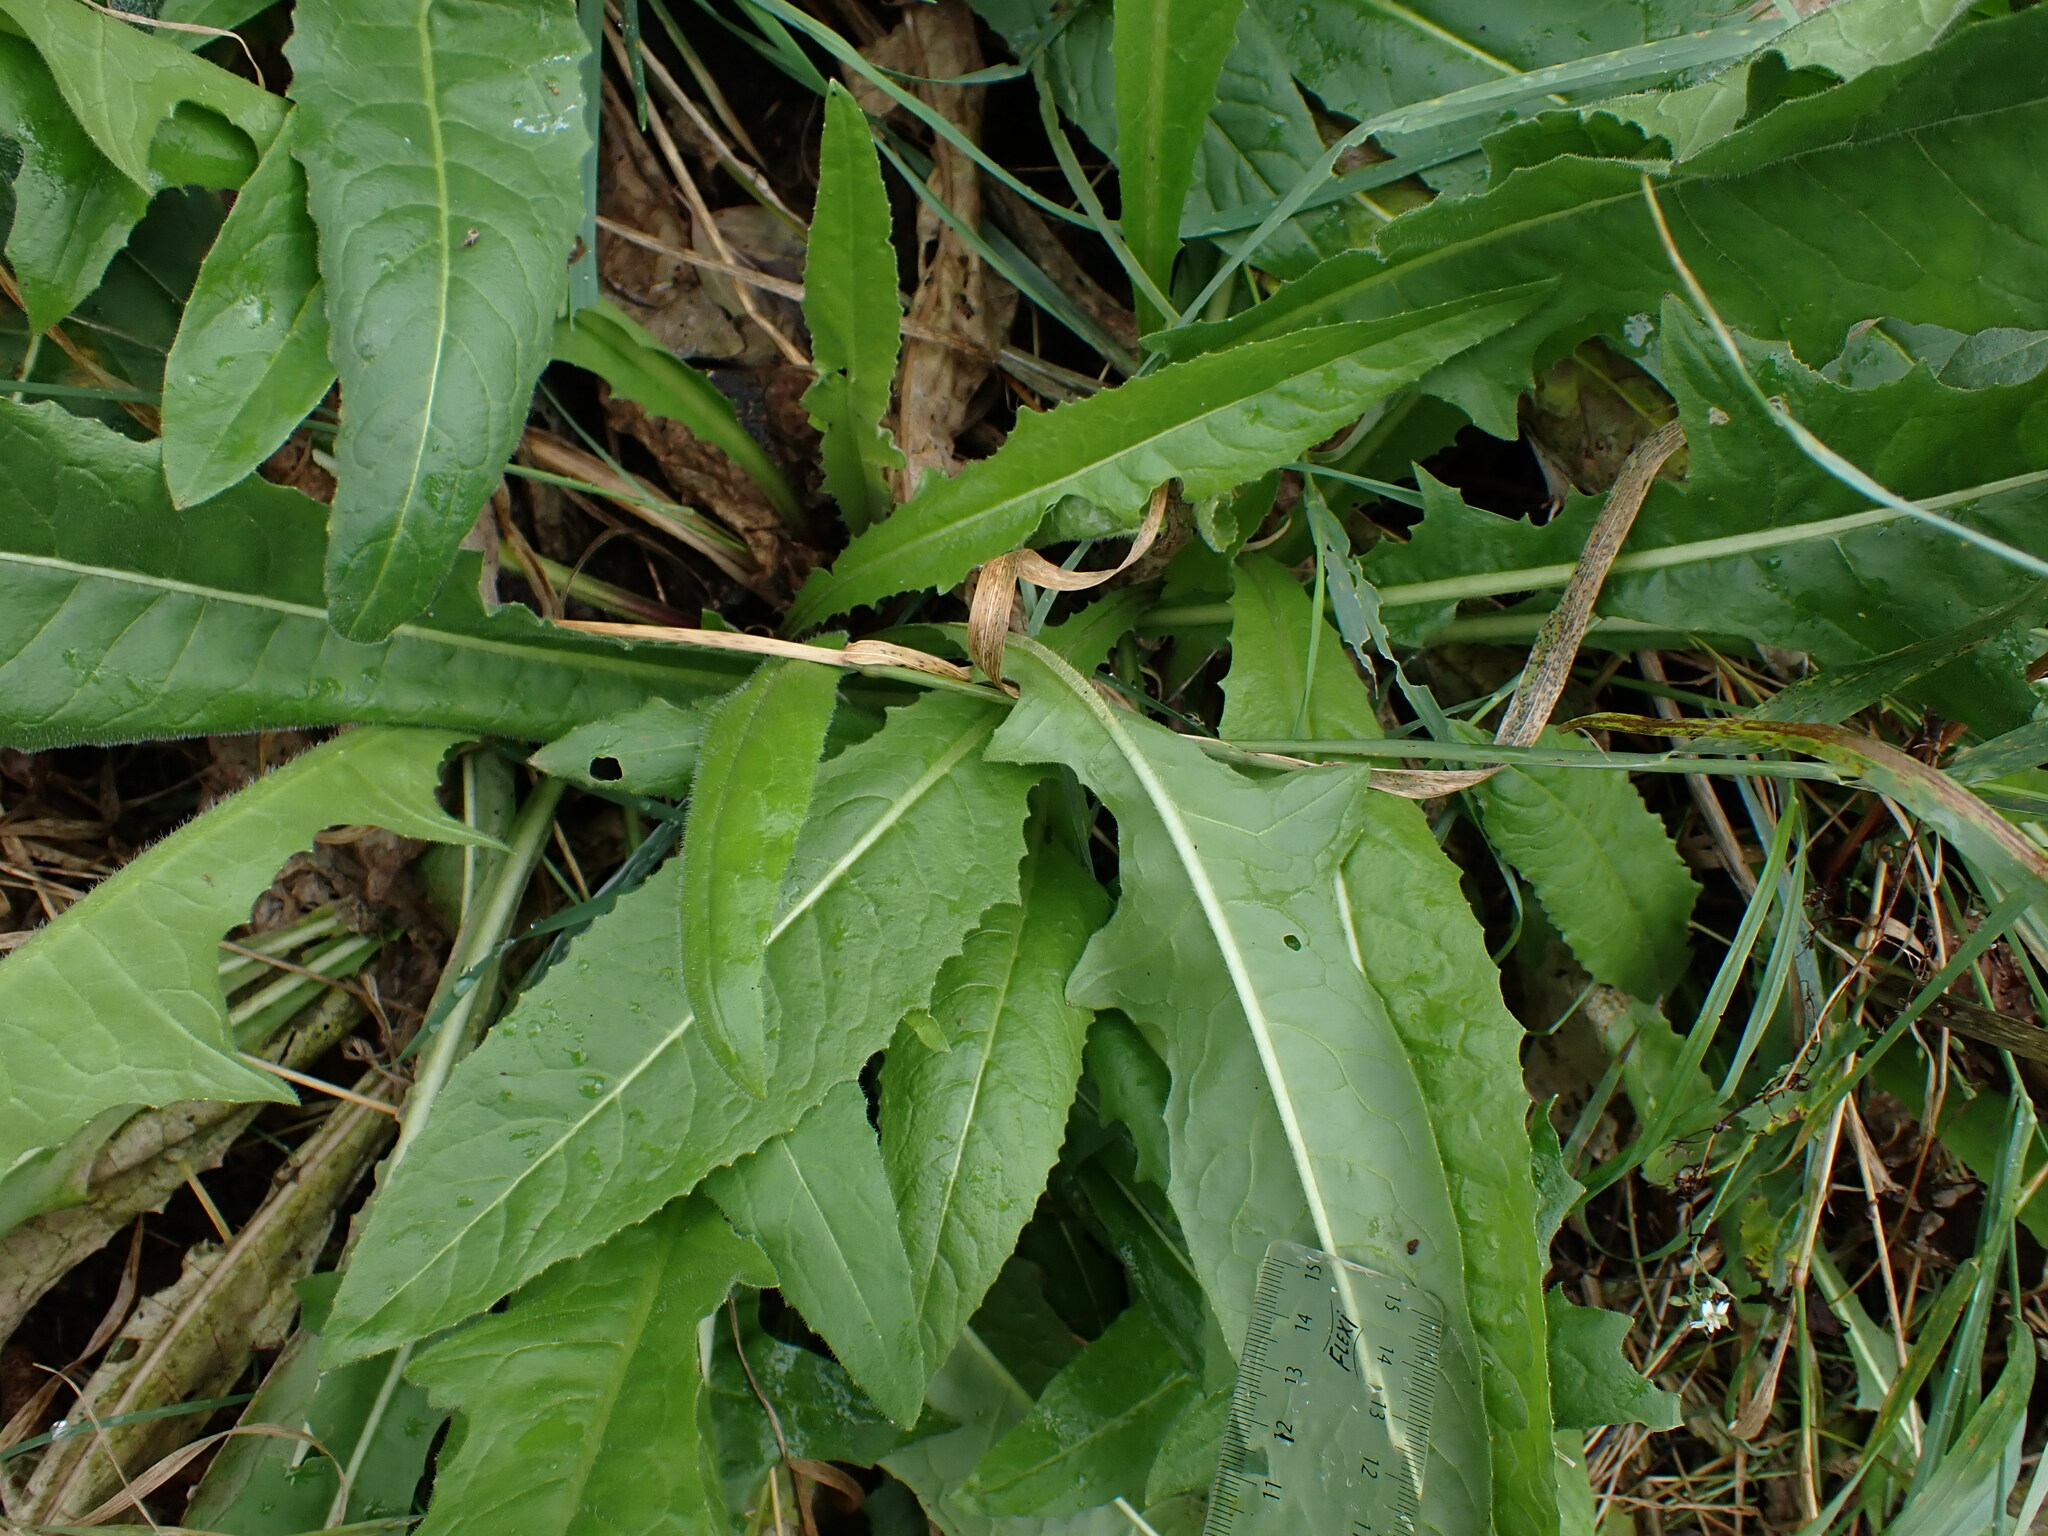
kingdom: Plantae
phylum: Tracheophyta
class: Magnoliopsida
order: Brassicales
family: Brassicaceae
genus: Bunias
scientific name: Bunias orientalis
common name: Warty-cabbage
